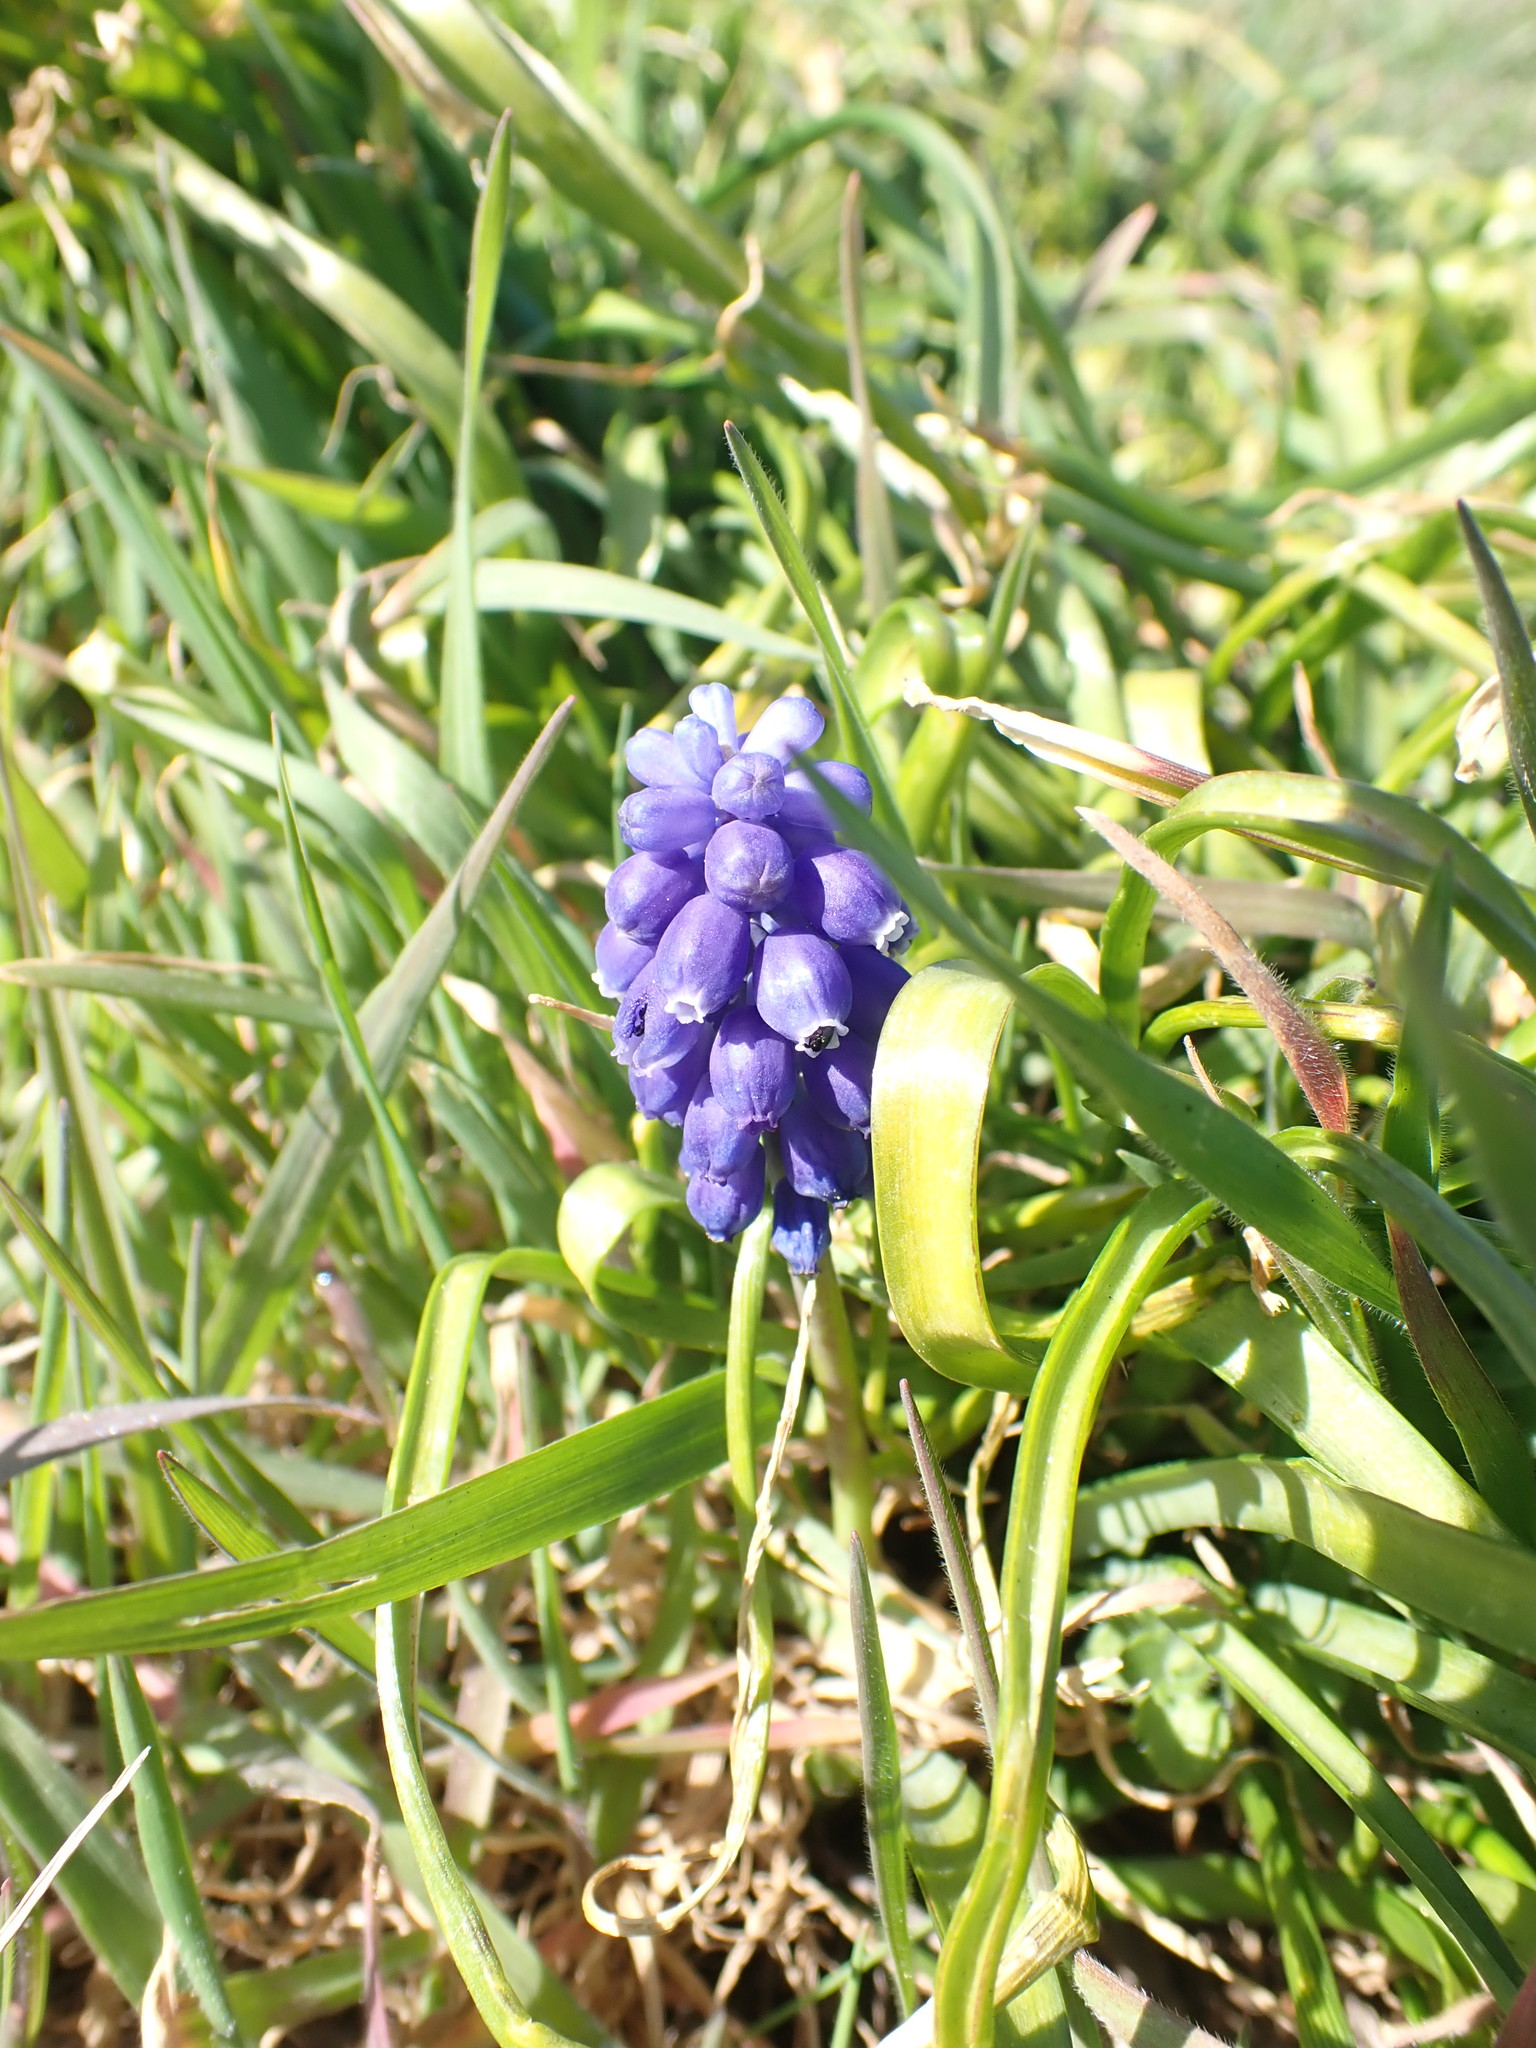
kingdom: Plantae
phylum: Tracheophyta
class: Liliopsida
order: Asparagales
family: Asparagaceae
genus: Muscari
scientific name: Muscari armeniacum
